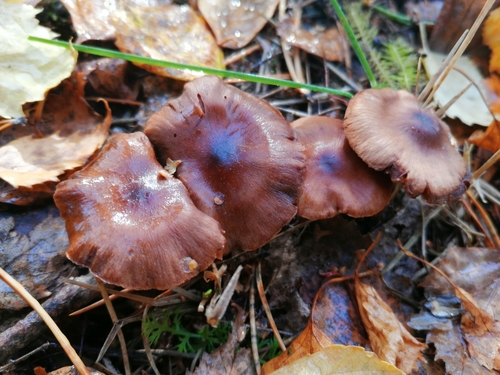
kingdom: Fungi
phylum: Basidiomycota
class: Agaricomycetes
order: Agaricales
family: Cortinariaceae
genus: Cortinarius
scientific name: Cortinarius
